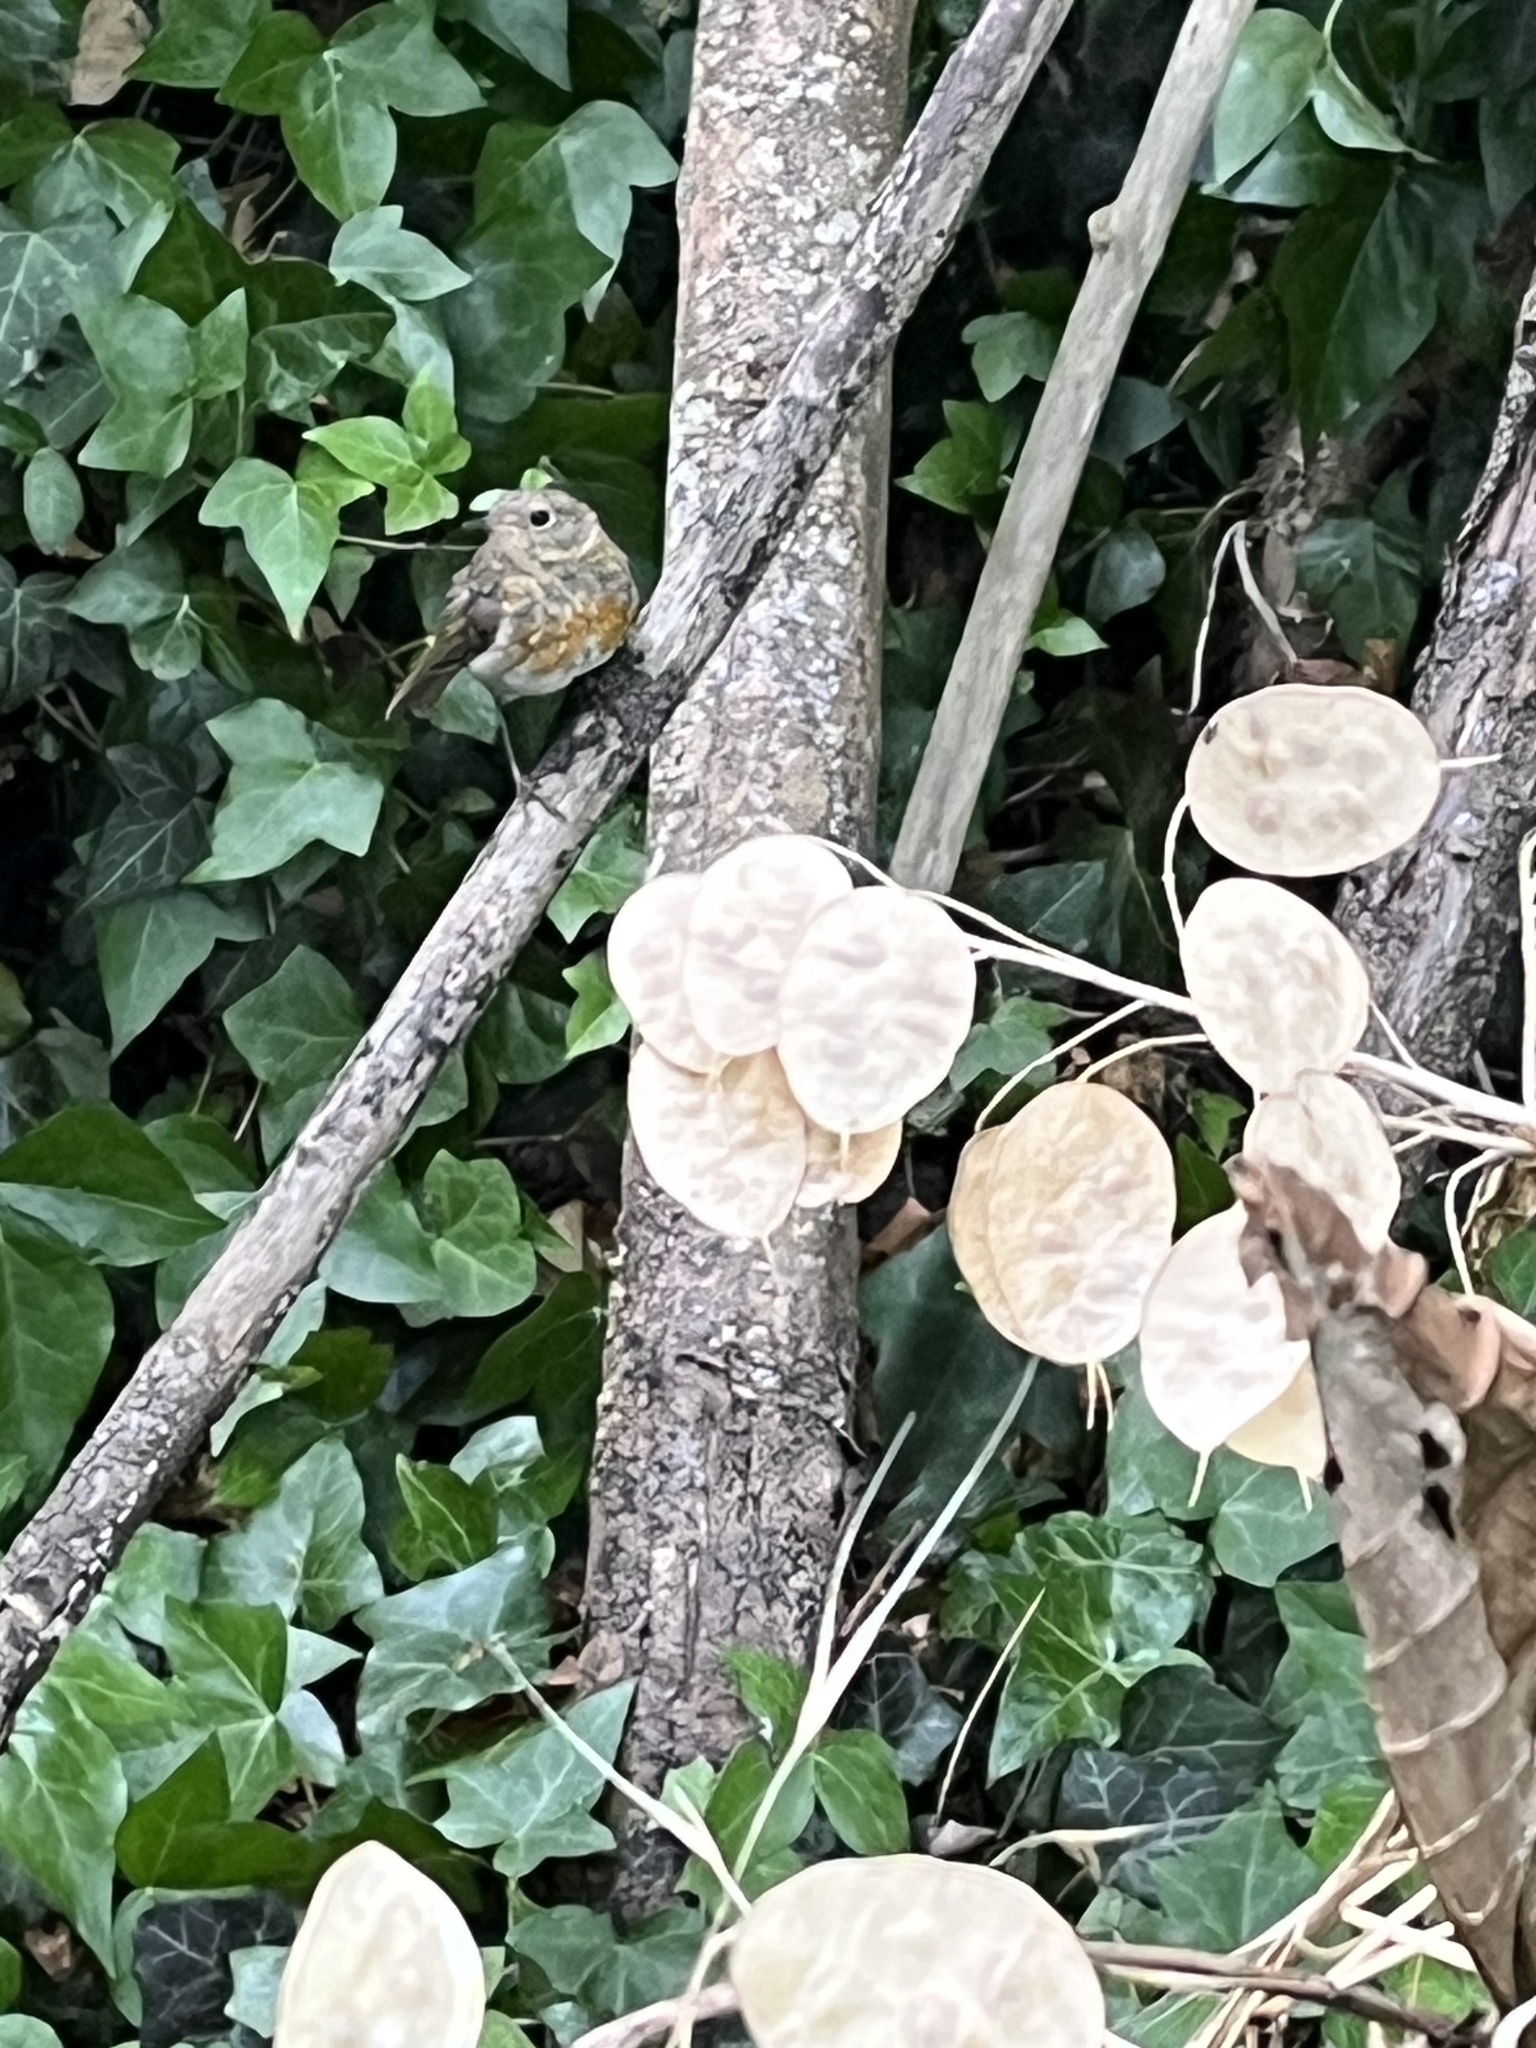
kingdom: Animalia
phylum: Chordata
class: Aves
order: Passeriformes
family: Muscicapidae
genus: Erithacus
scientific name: Erithacus rubecula
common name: European robin
